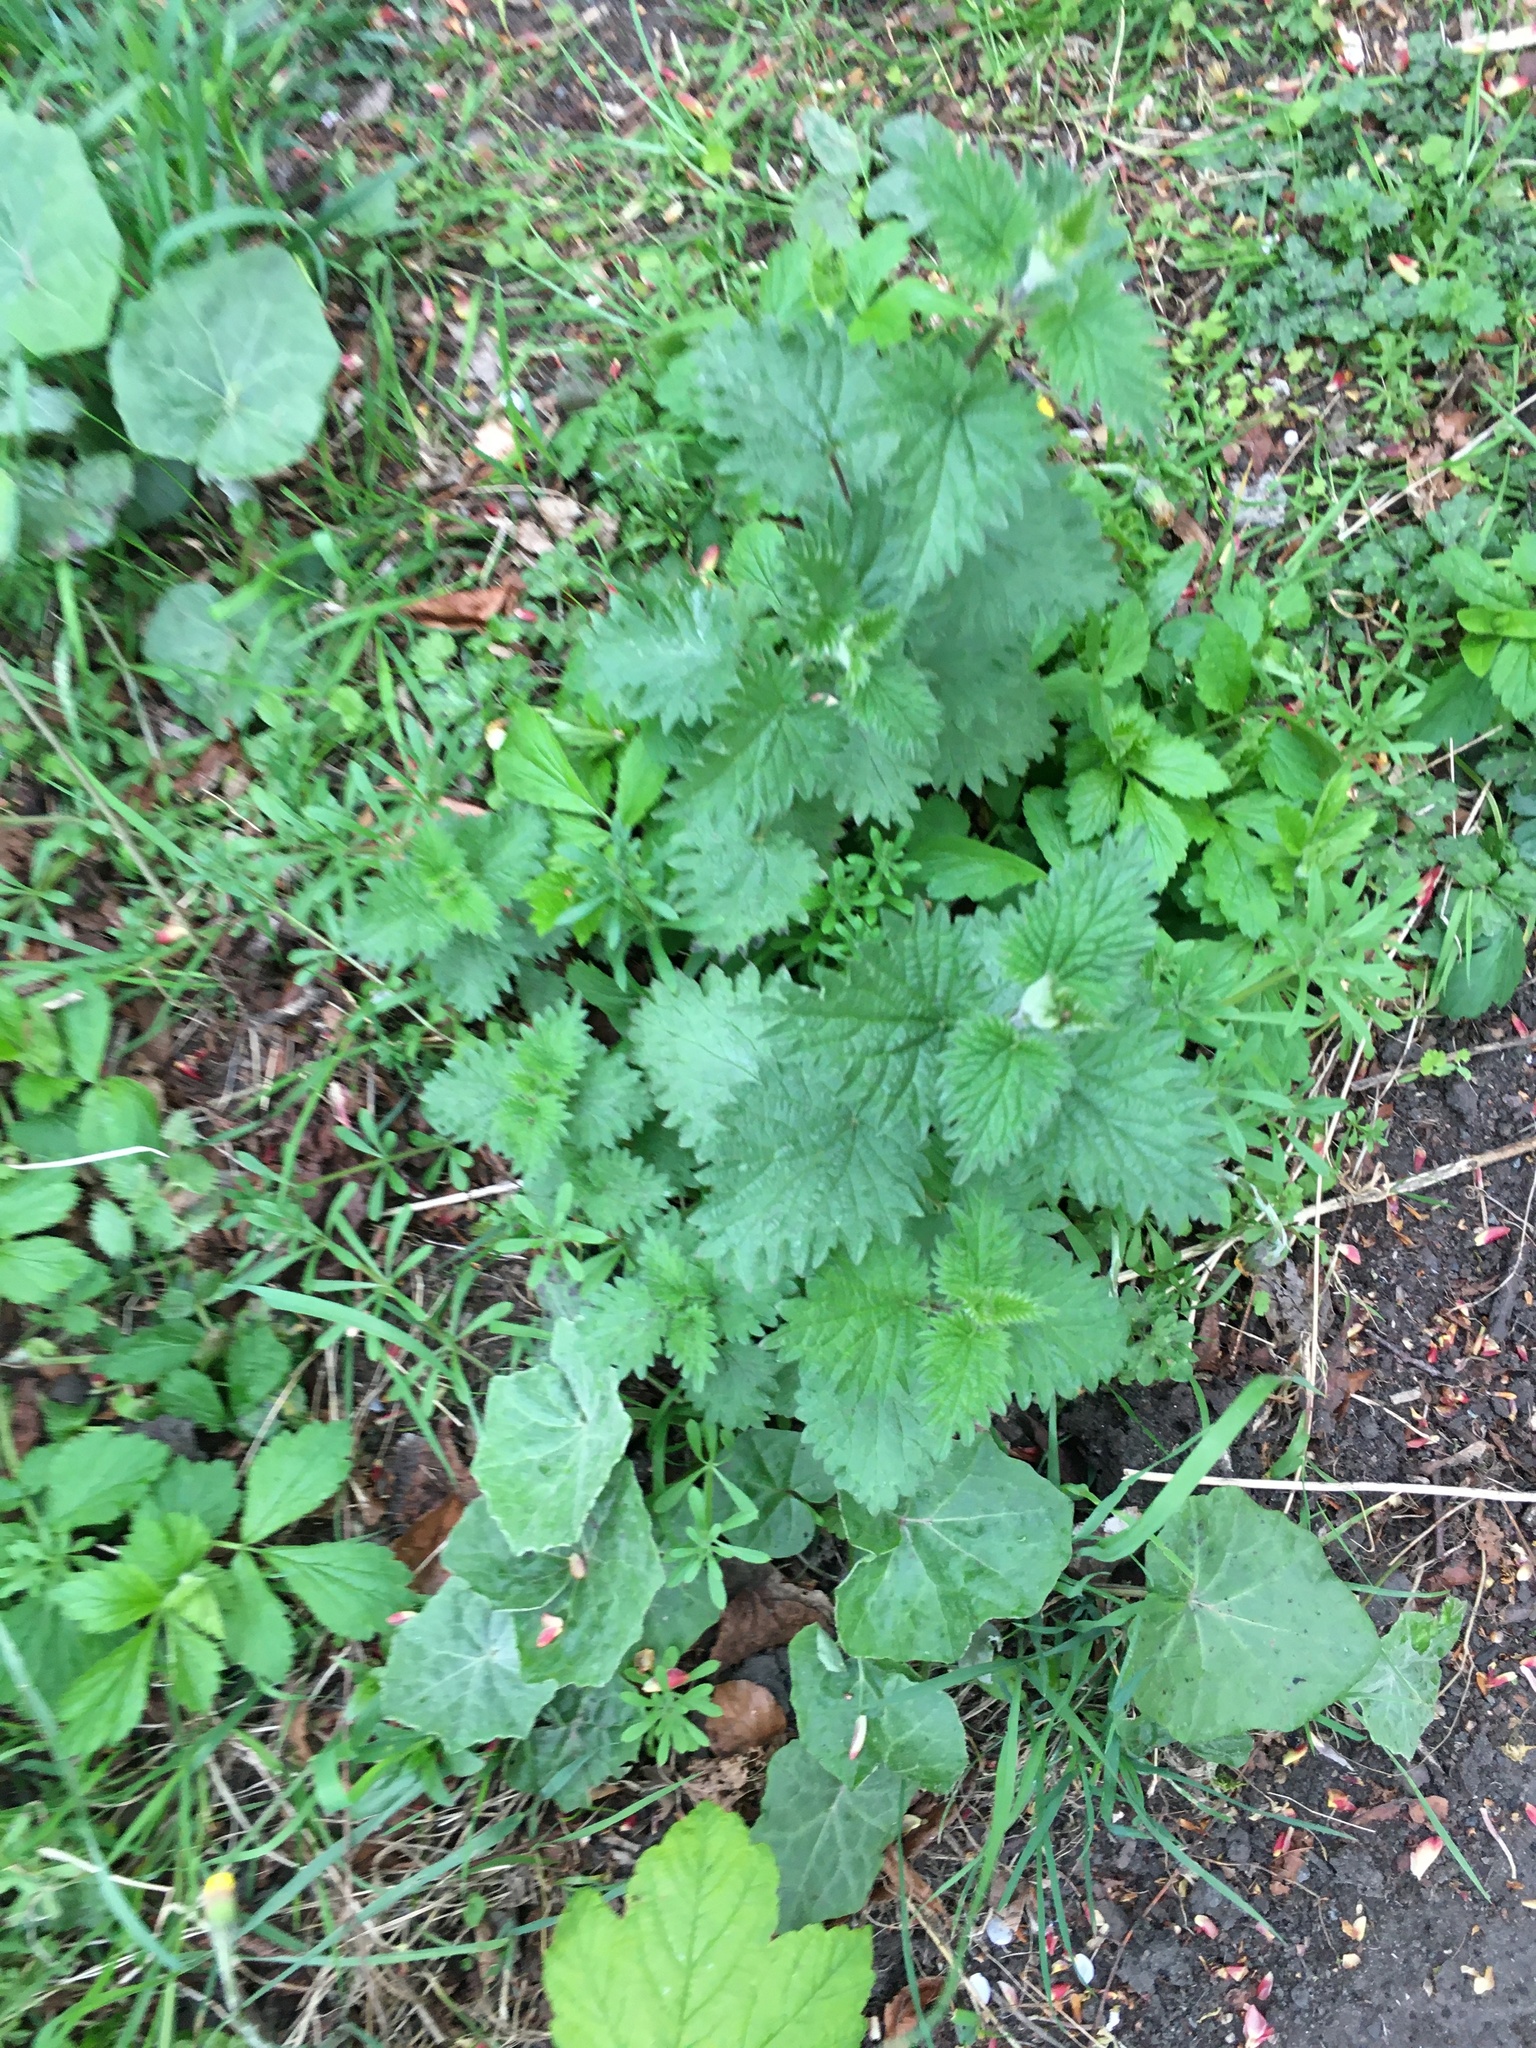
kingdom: Plantae
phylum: Tracheophyta
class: Magnoliopsida
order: Rosales
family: Urticaceae
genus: Urtica
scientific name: Urtica dioica
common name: Common nettle
